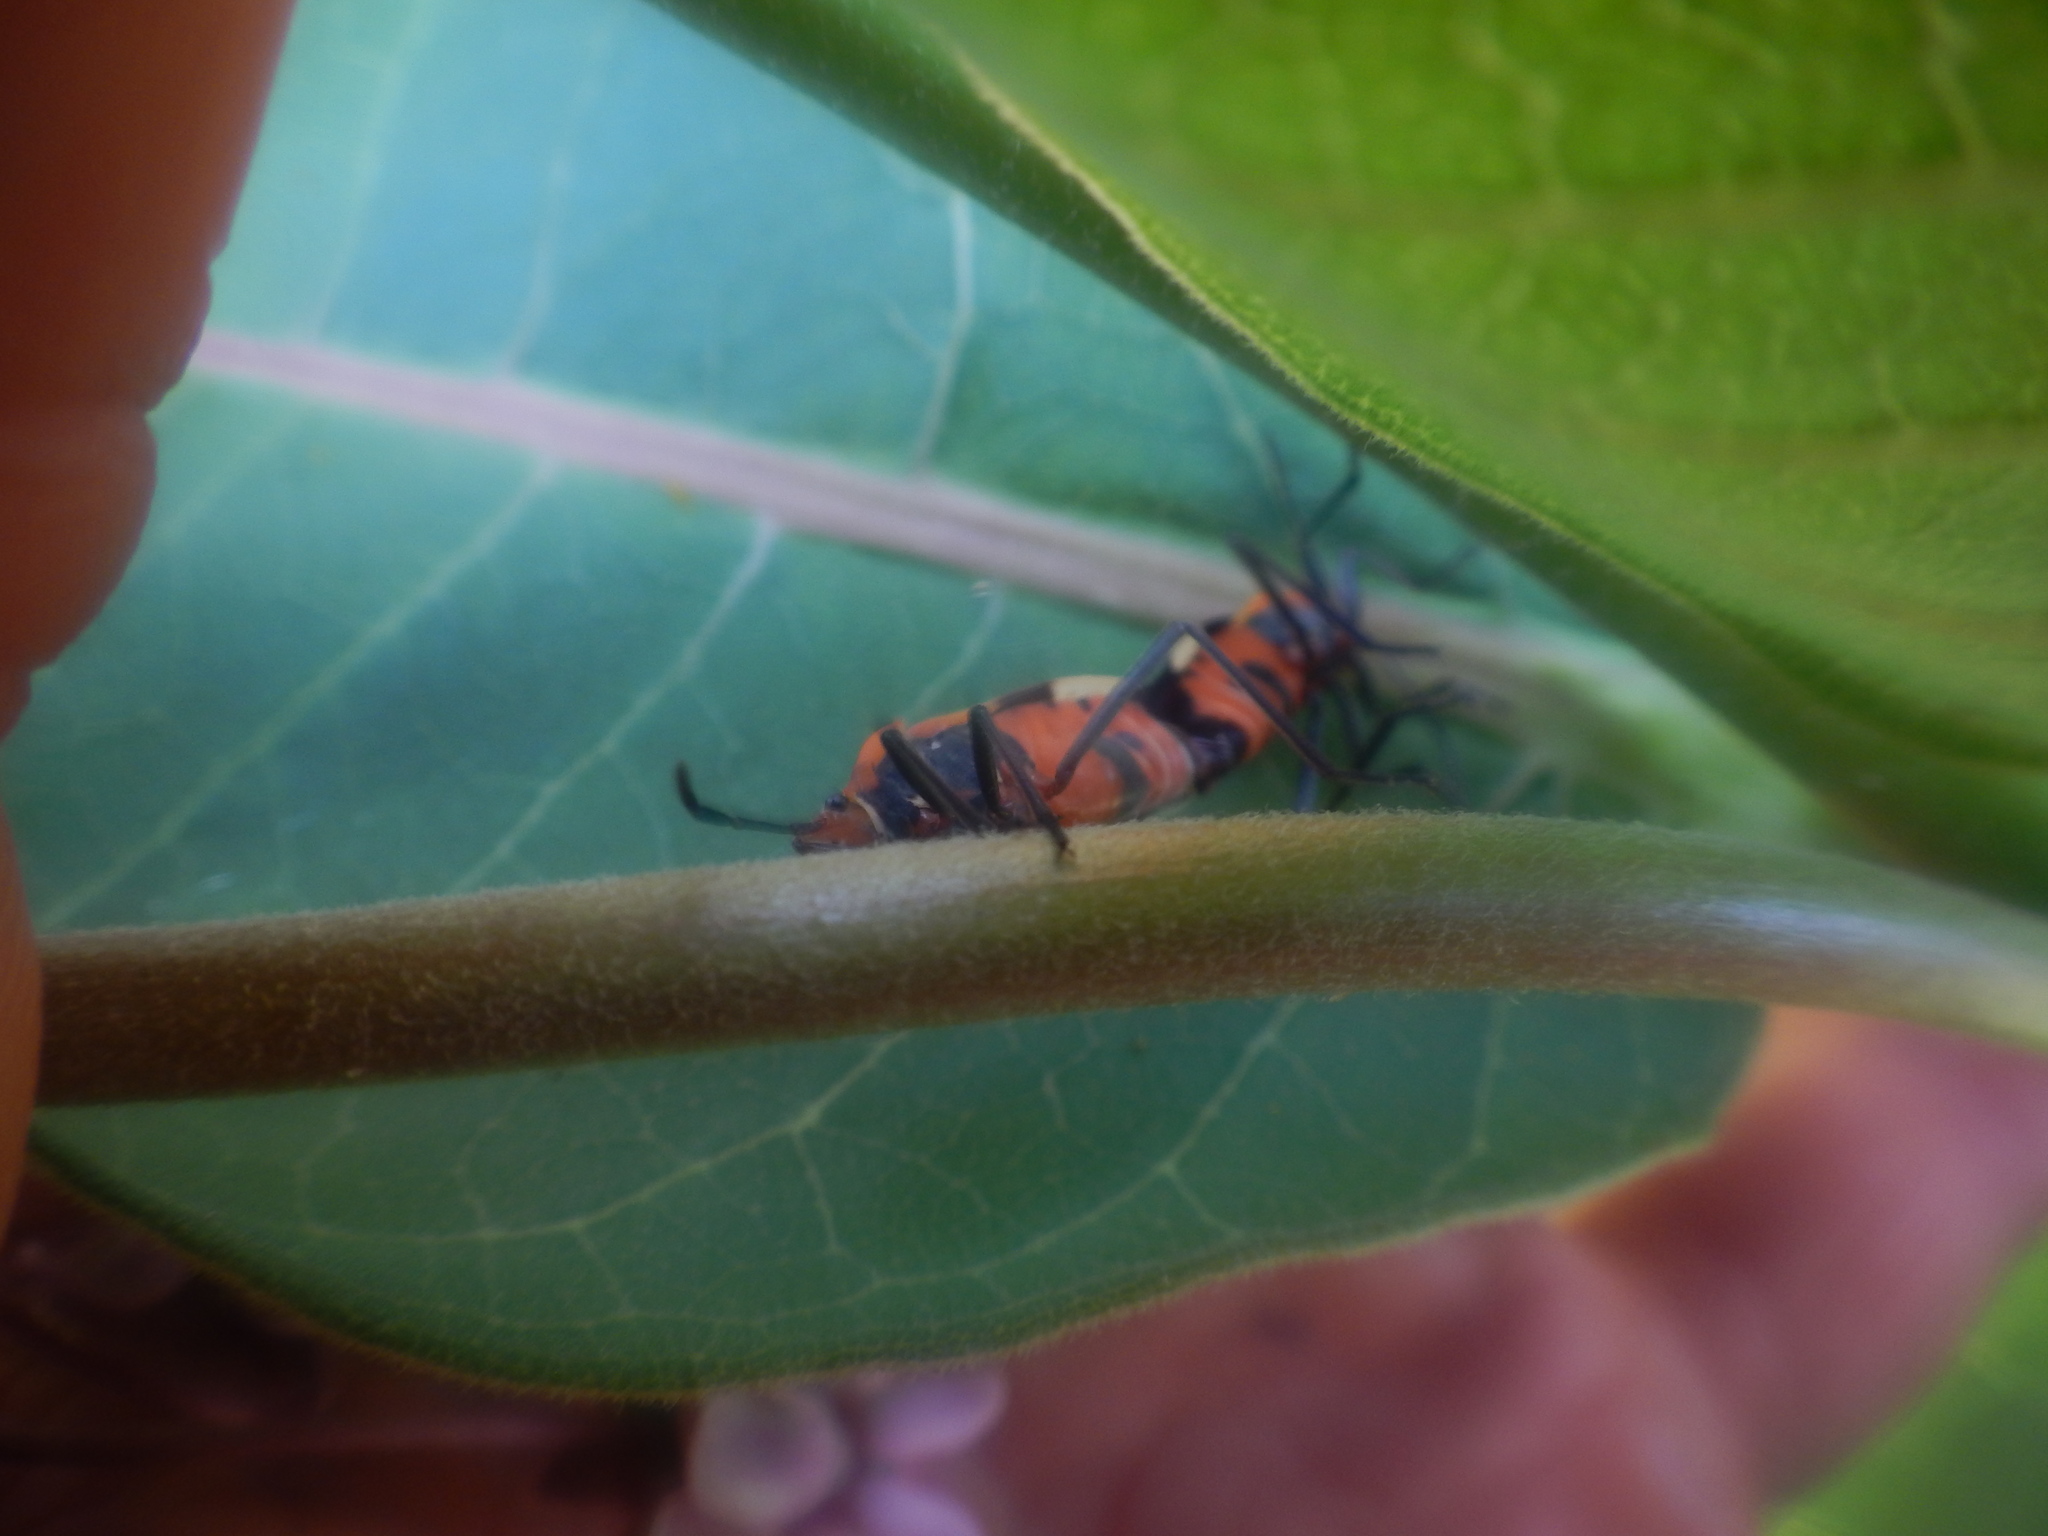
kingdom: Animalia
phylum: Arthropoda
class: Insecta
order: Hemiptera
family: Lygaeidae
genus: Oncopeltus
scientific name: Oncopeltus fasciatus
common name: Large milkweed bug
